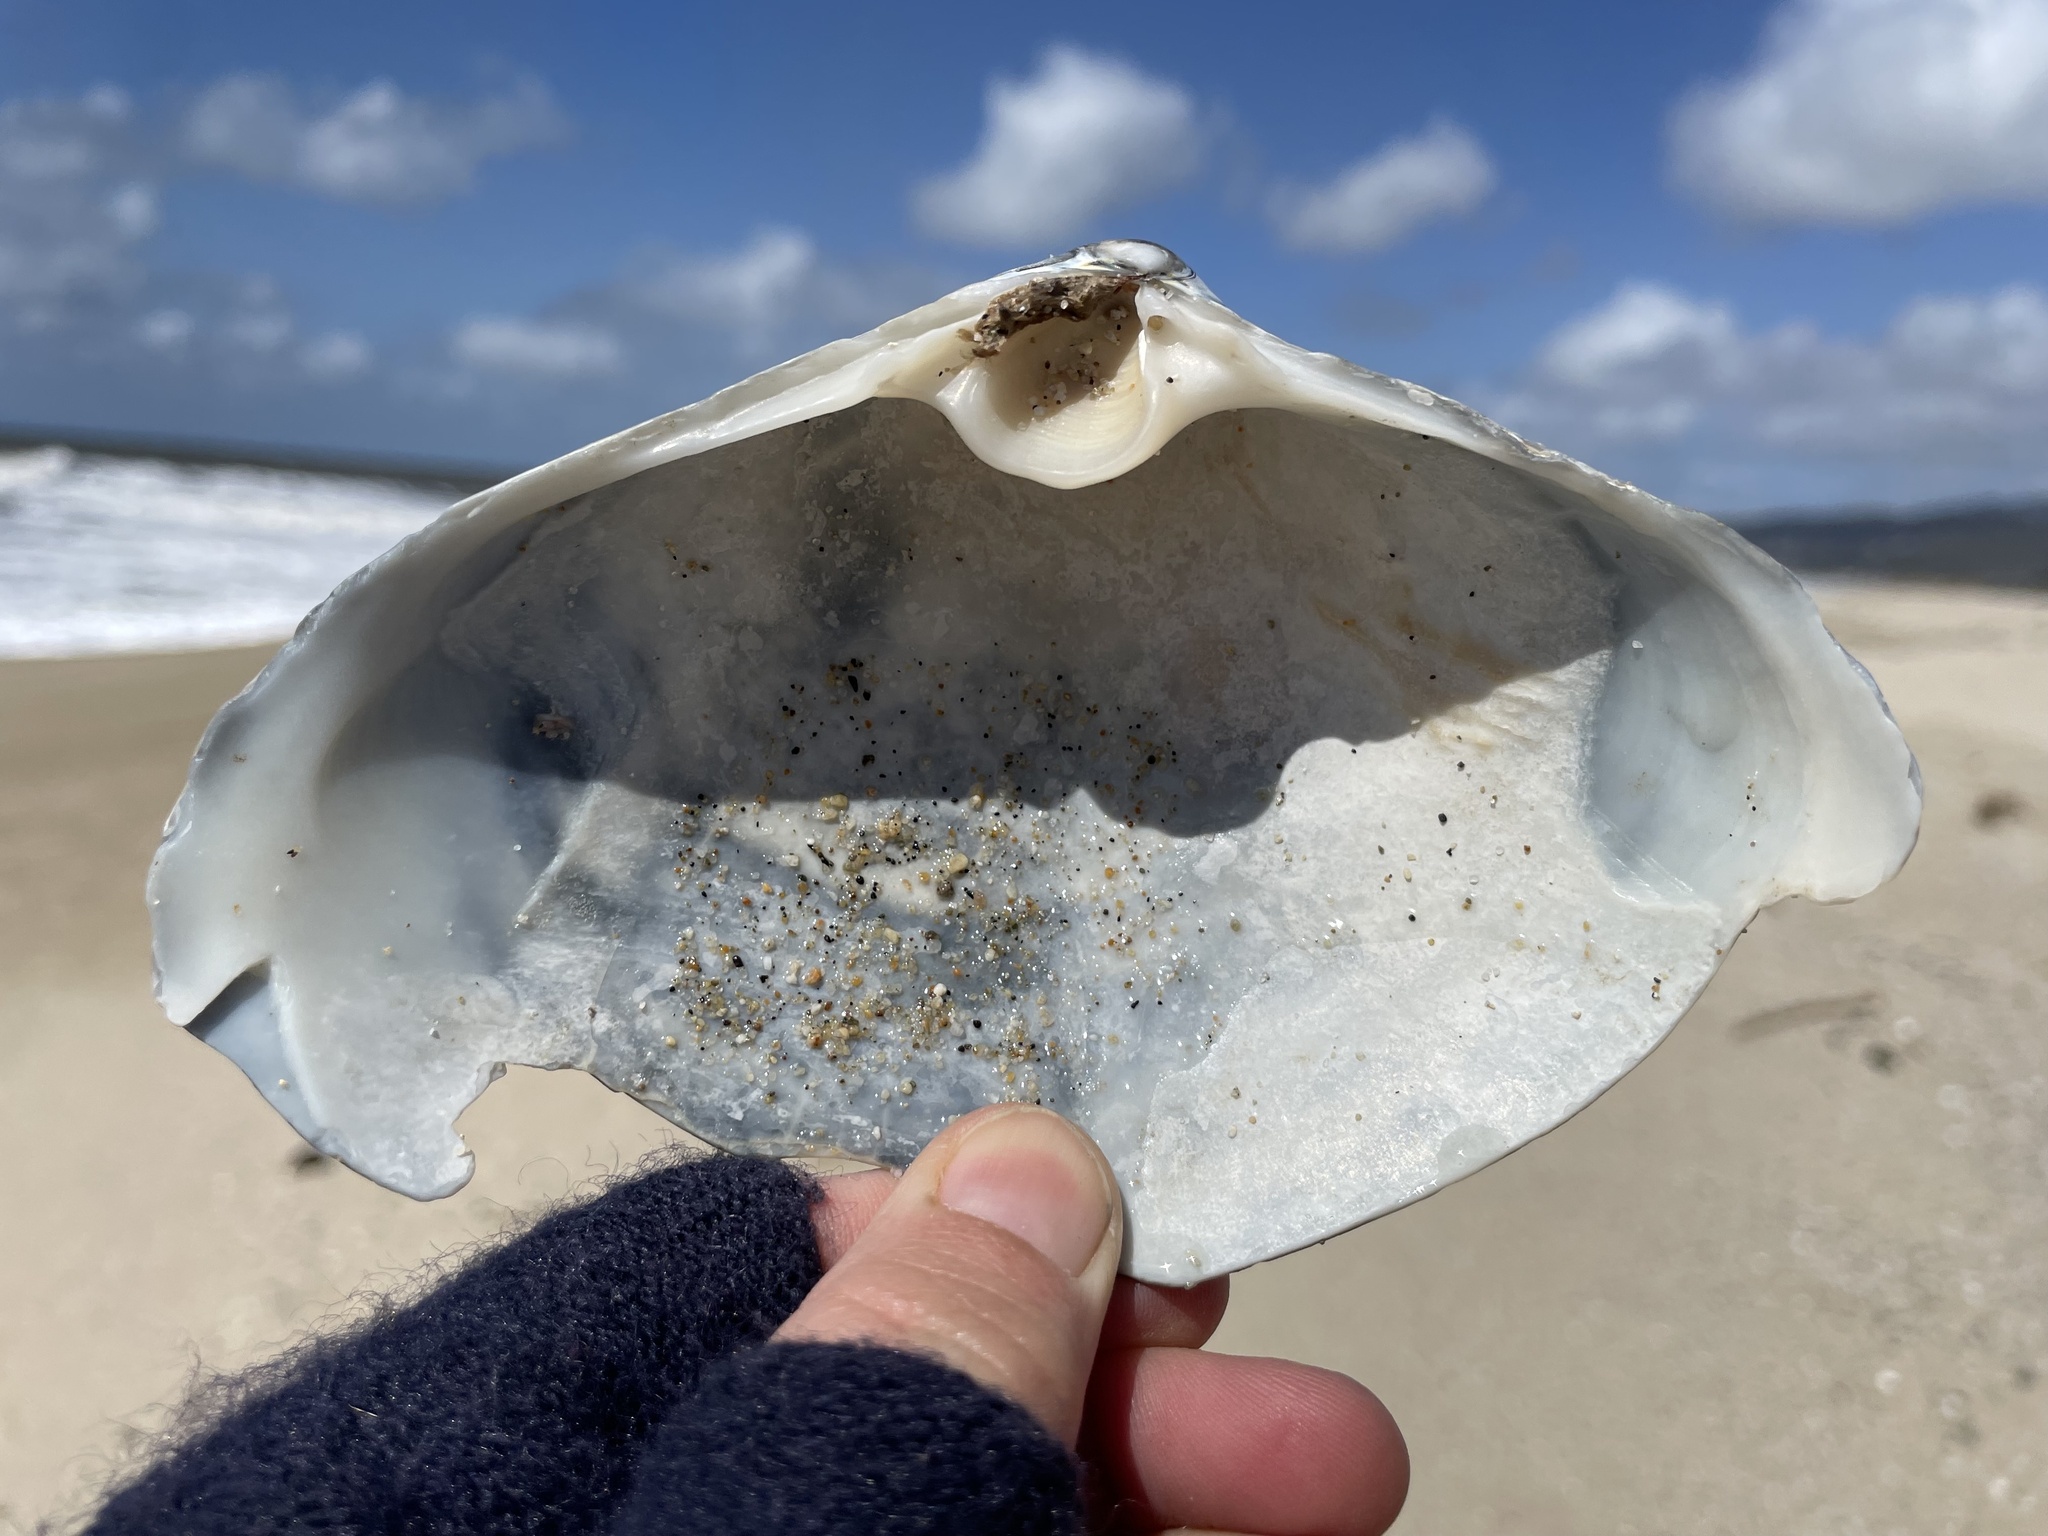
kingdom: Animalia
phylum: Mollusca
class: Bivalvia
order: Venerida
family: Mactridae
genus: Mactromeris
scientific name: Mactromeris catilliformis
